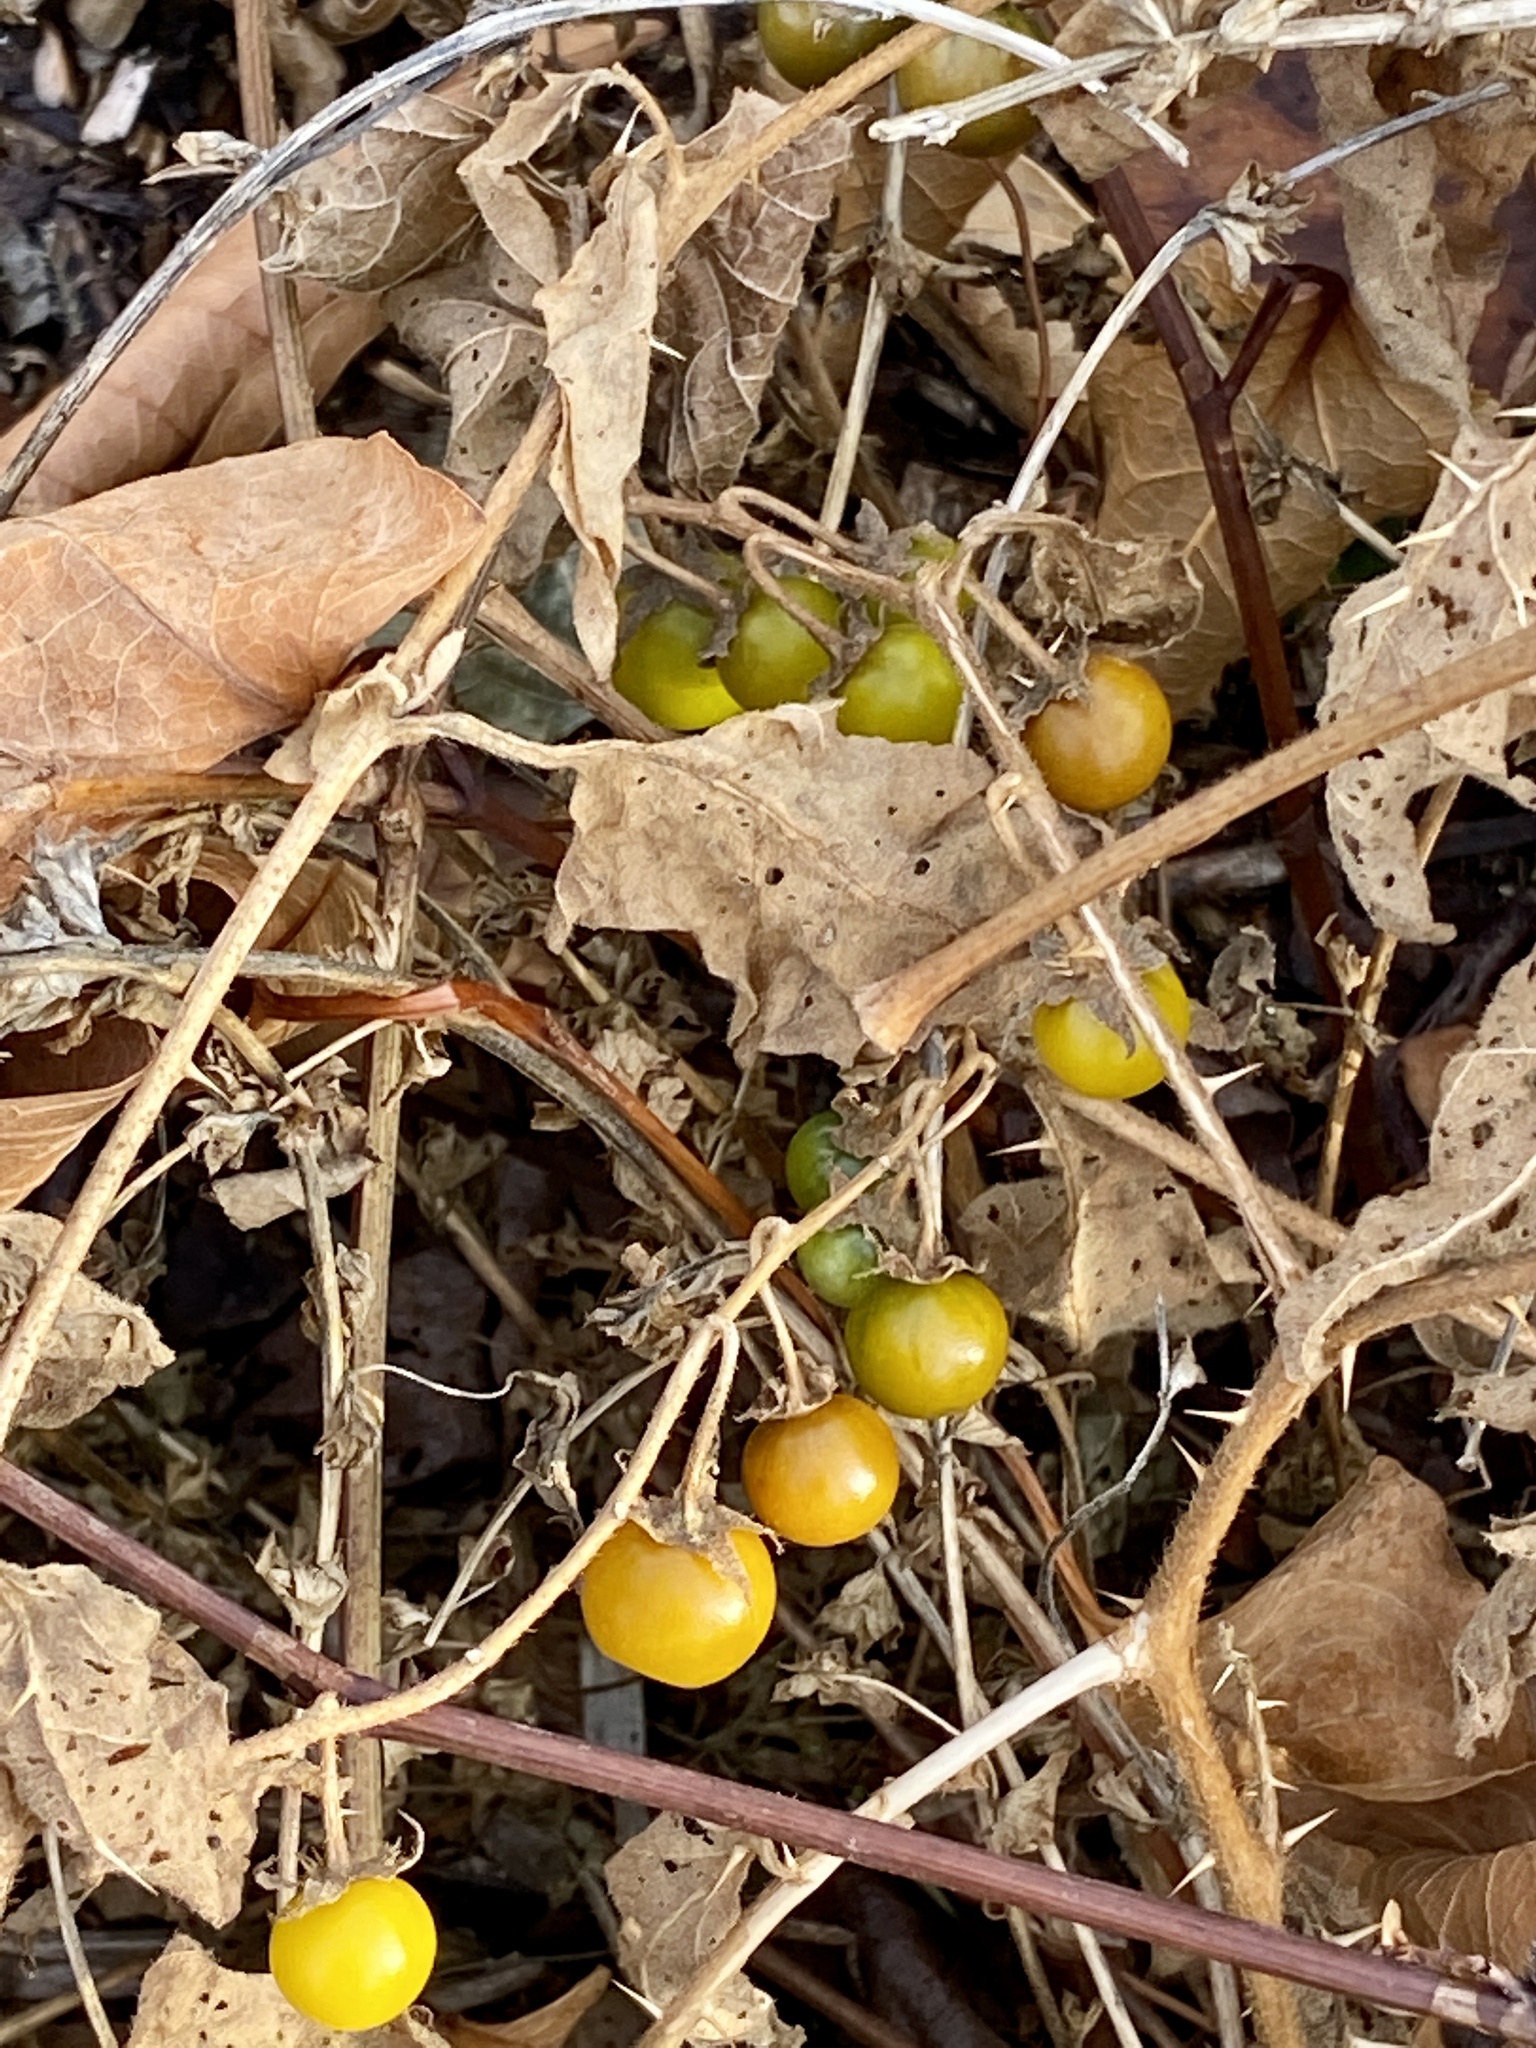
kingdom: Plantae
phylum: Tracheophyta
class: Magnoliopsida
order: Solanales
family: Solanaceae
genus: Solanum
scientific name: Solanum carolinense
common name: Horse-nettle
